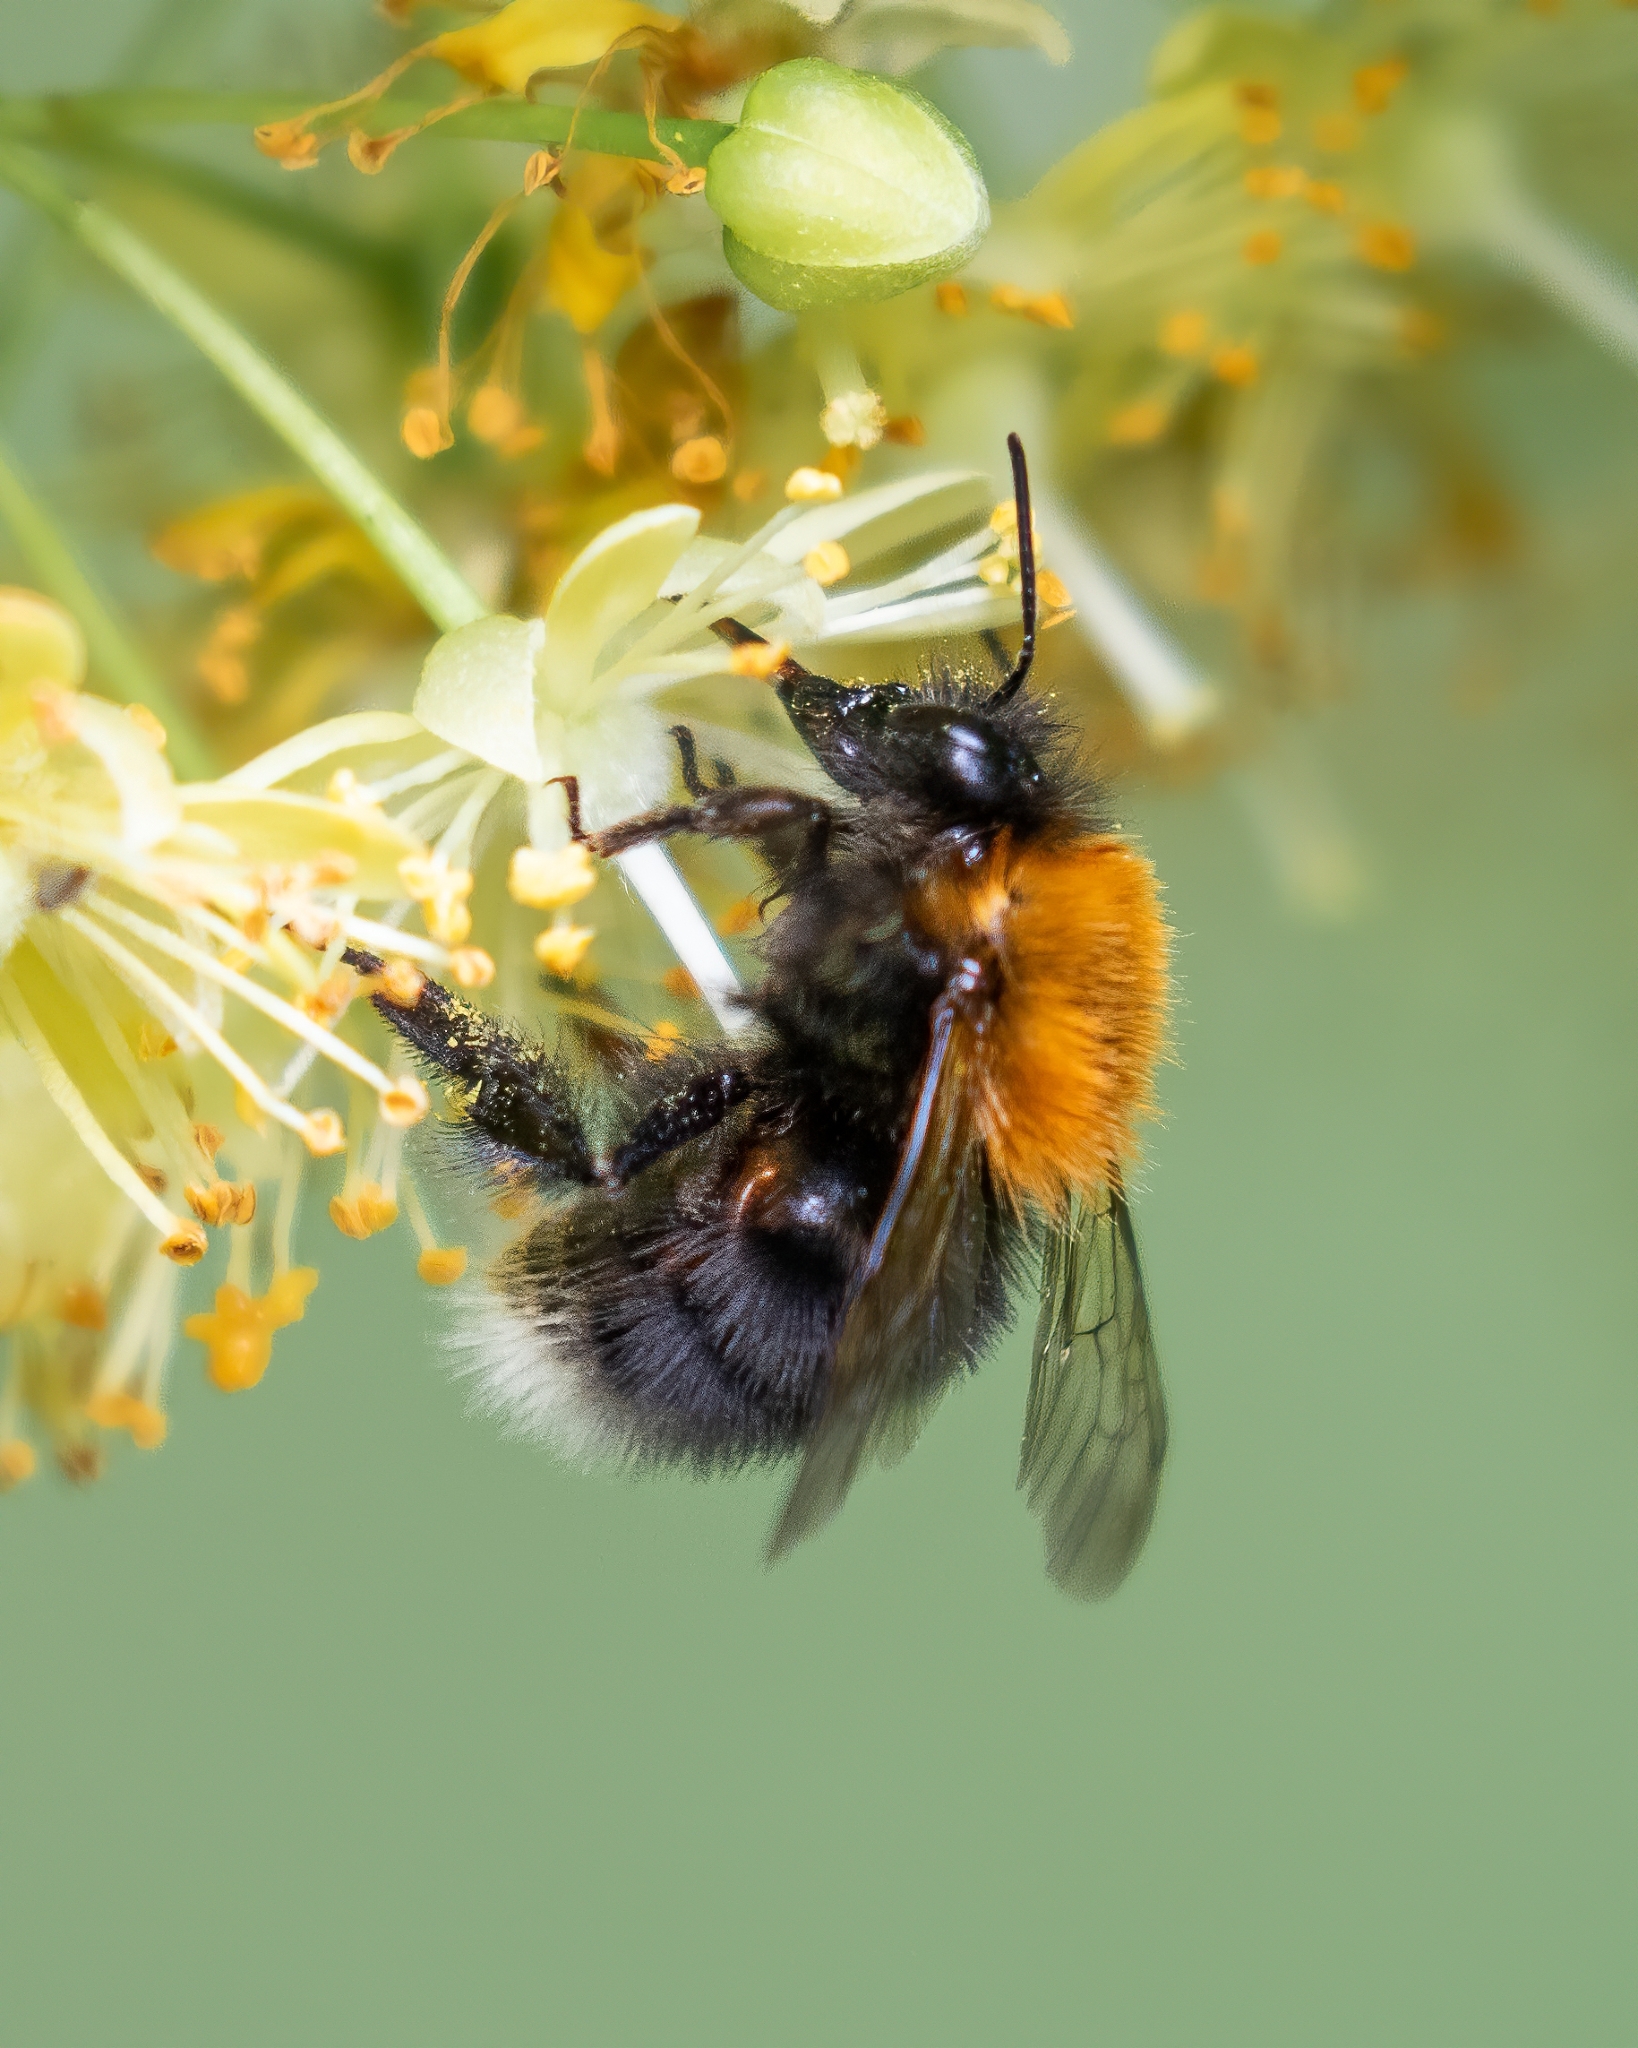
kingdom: Animalia
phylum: Arthropoda
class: Insecta
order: Hymenoptera
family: Apidae
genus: Bombus
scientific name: Bombus hypnorum
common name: New garden bumblebee
